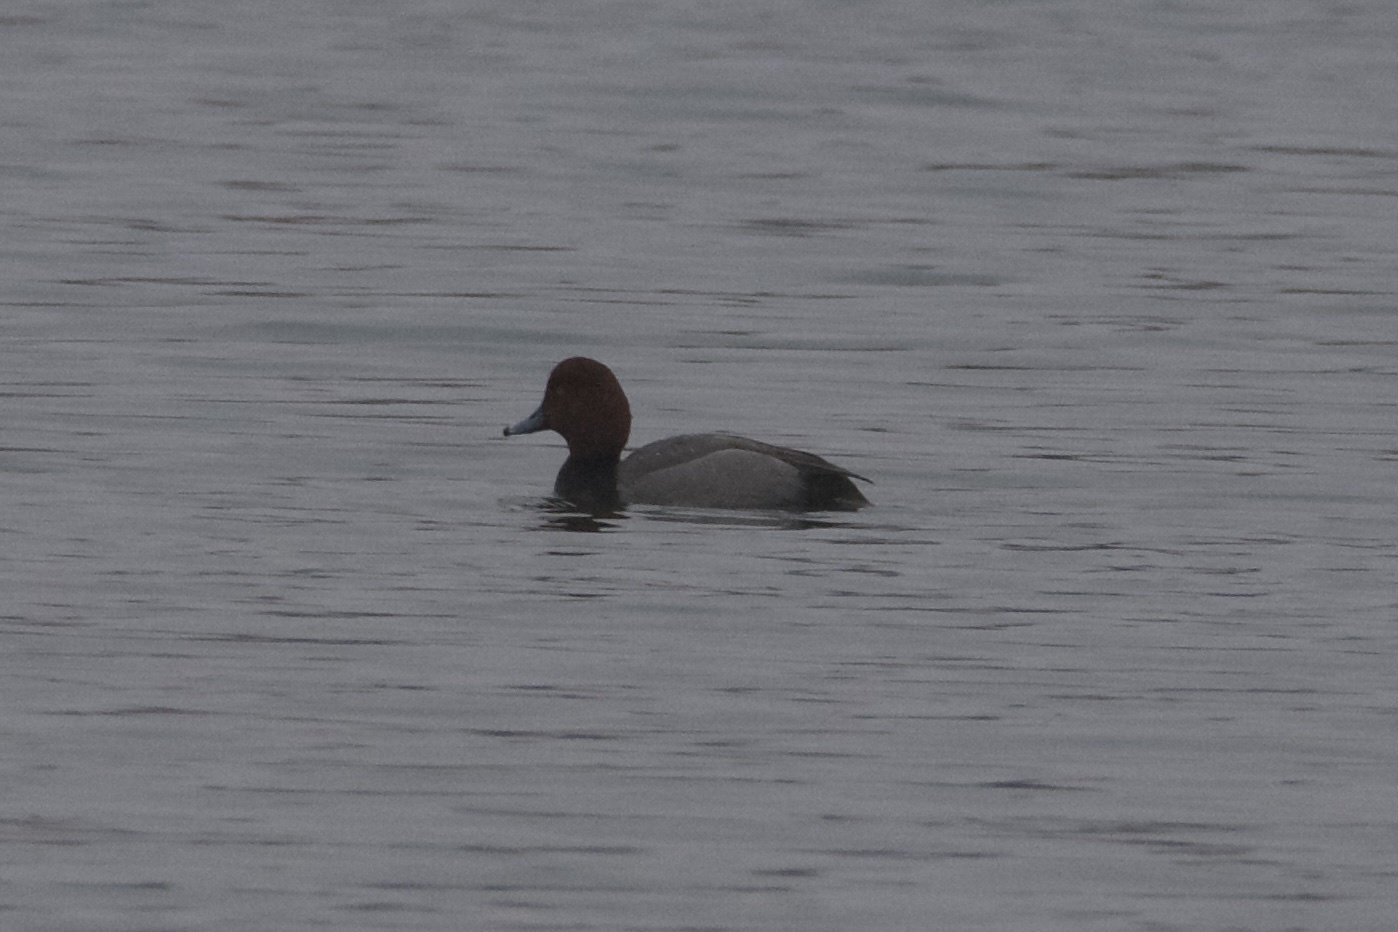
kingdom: Animalia
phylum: Chordata
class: Aves
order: Anseriformes
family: Anatidae
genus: Aythya
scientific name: Aythya americana
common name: Redhead
